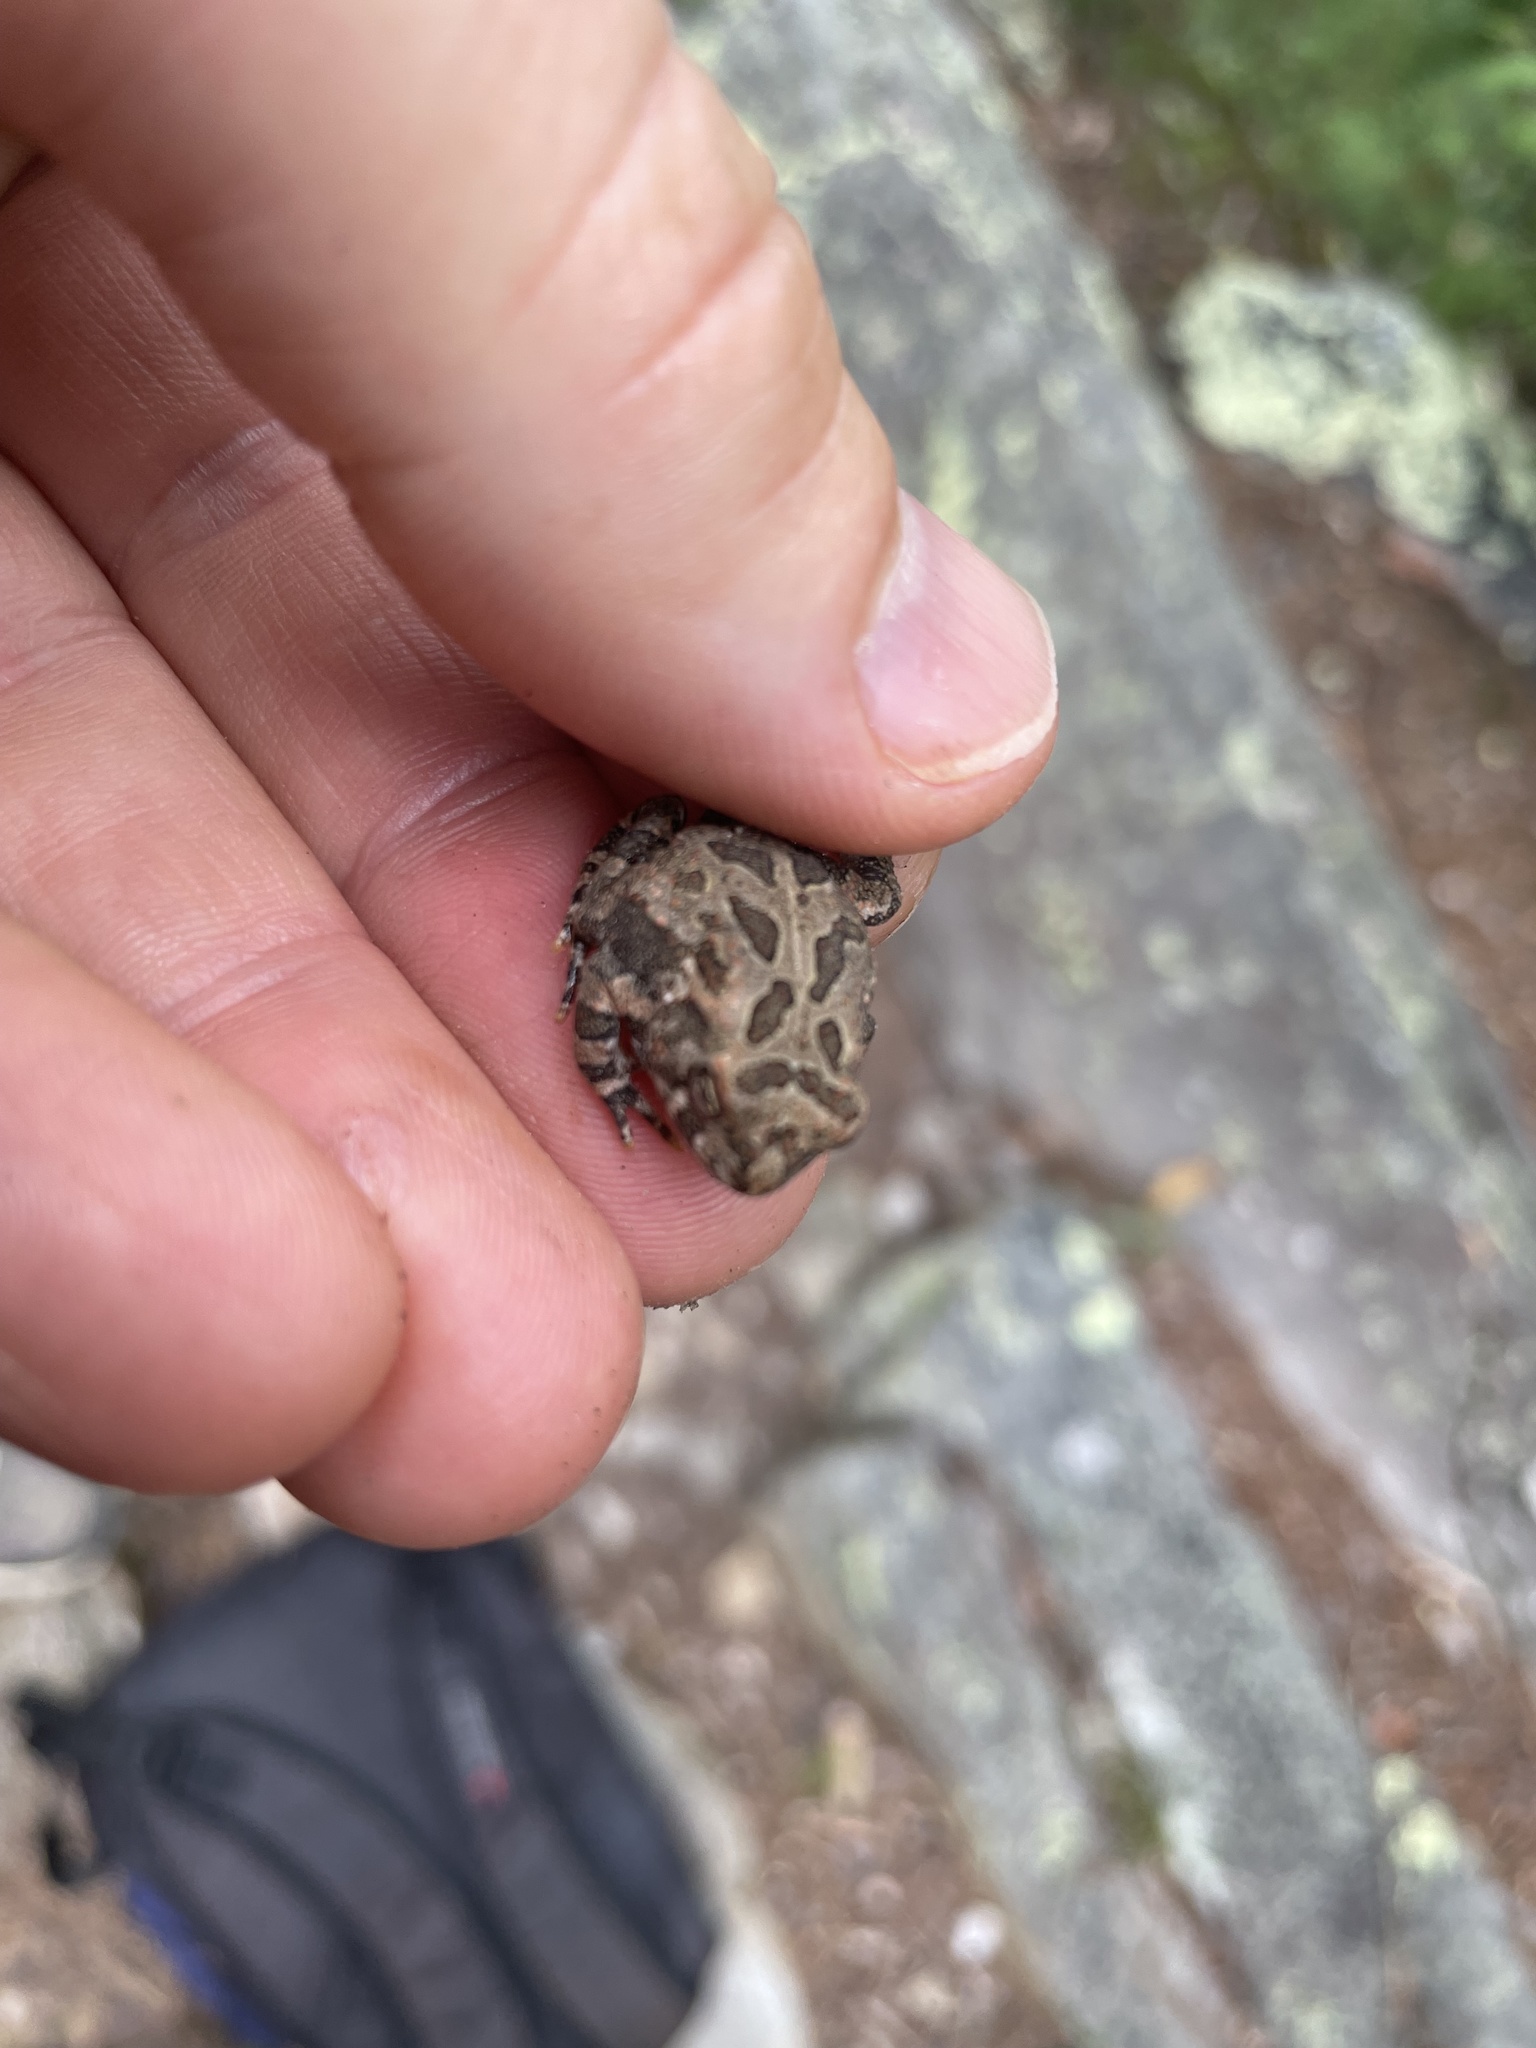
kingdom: Animalia
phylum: Chordata
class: Amphibia
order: Anura
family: Bufonidae
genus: Anaxyrus
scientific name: Anaxyrus fowleri
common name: Fowler's toad
